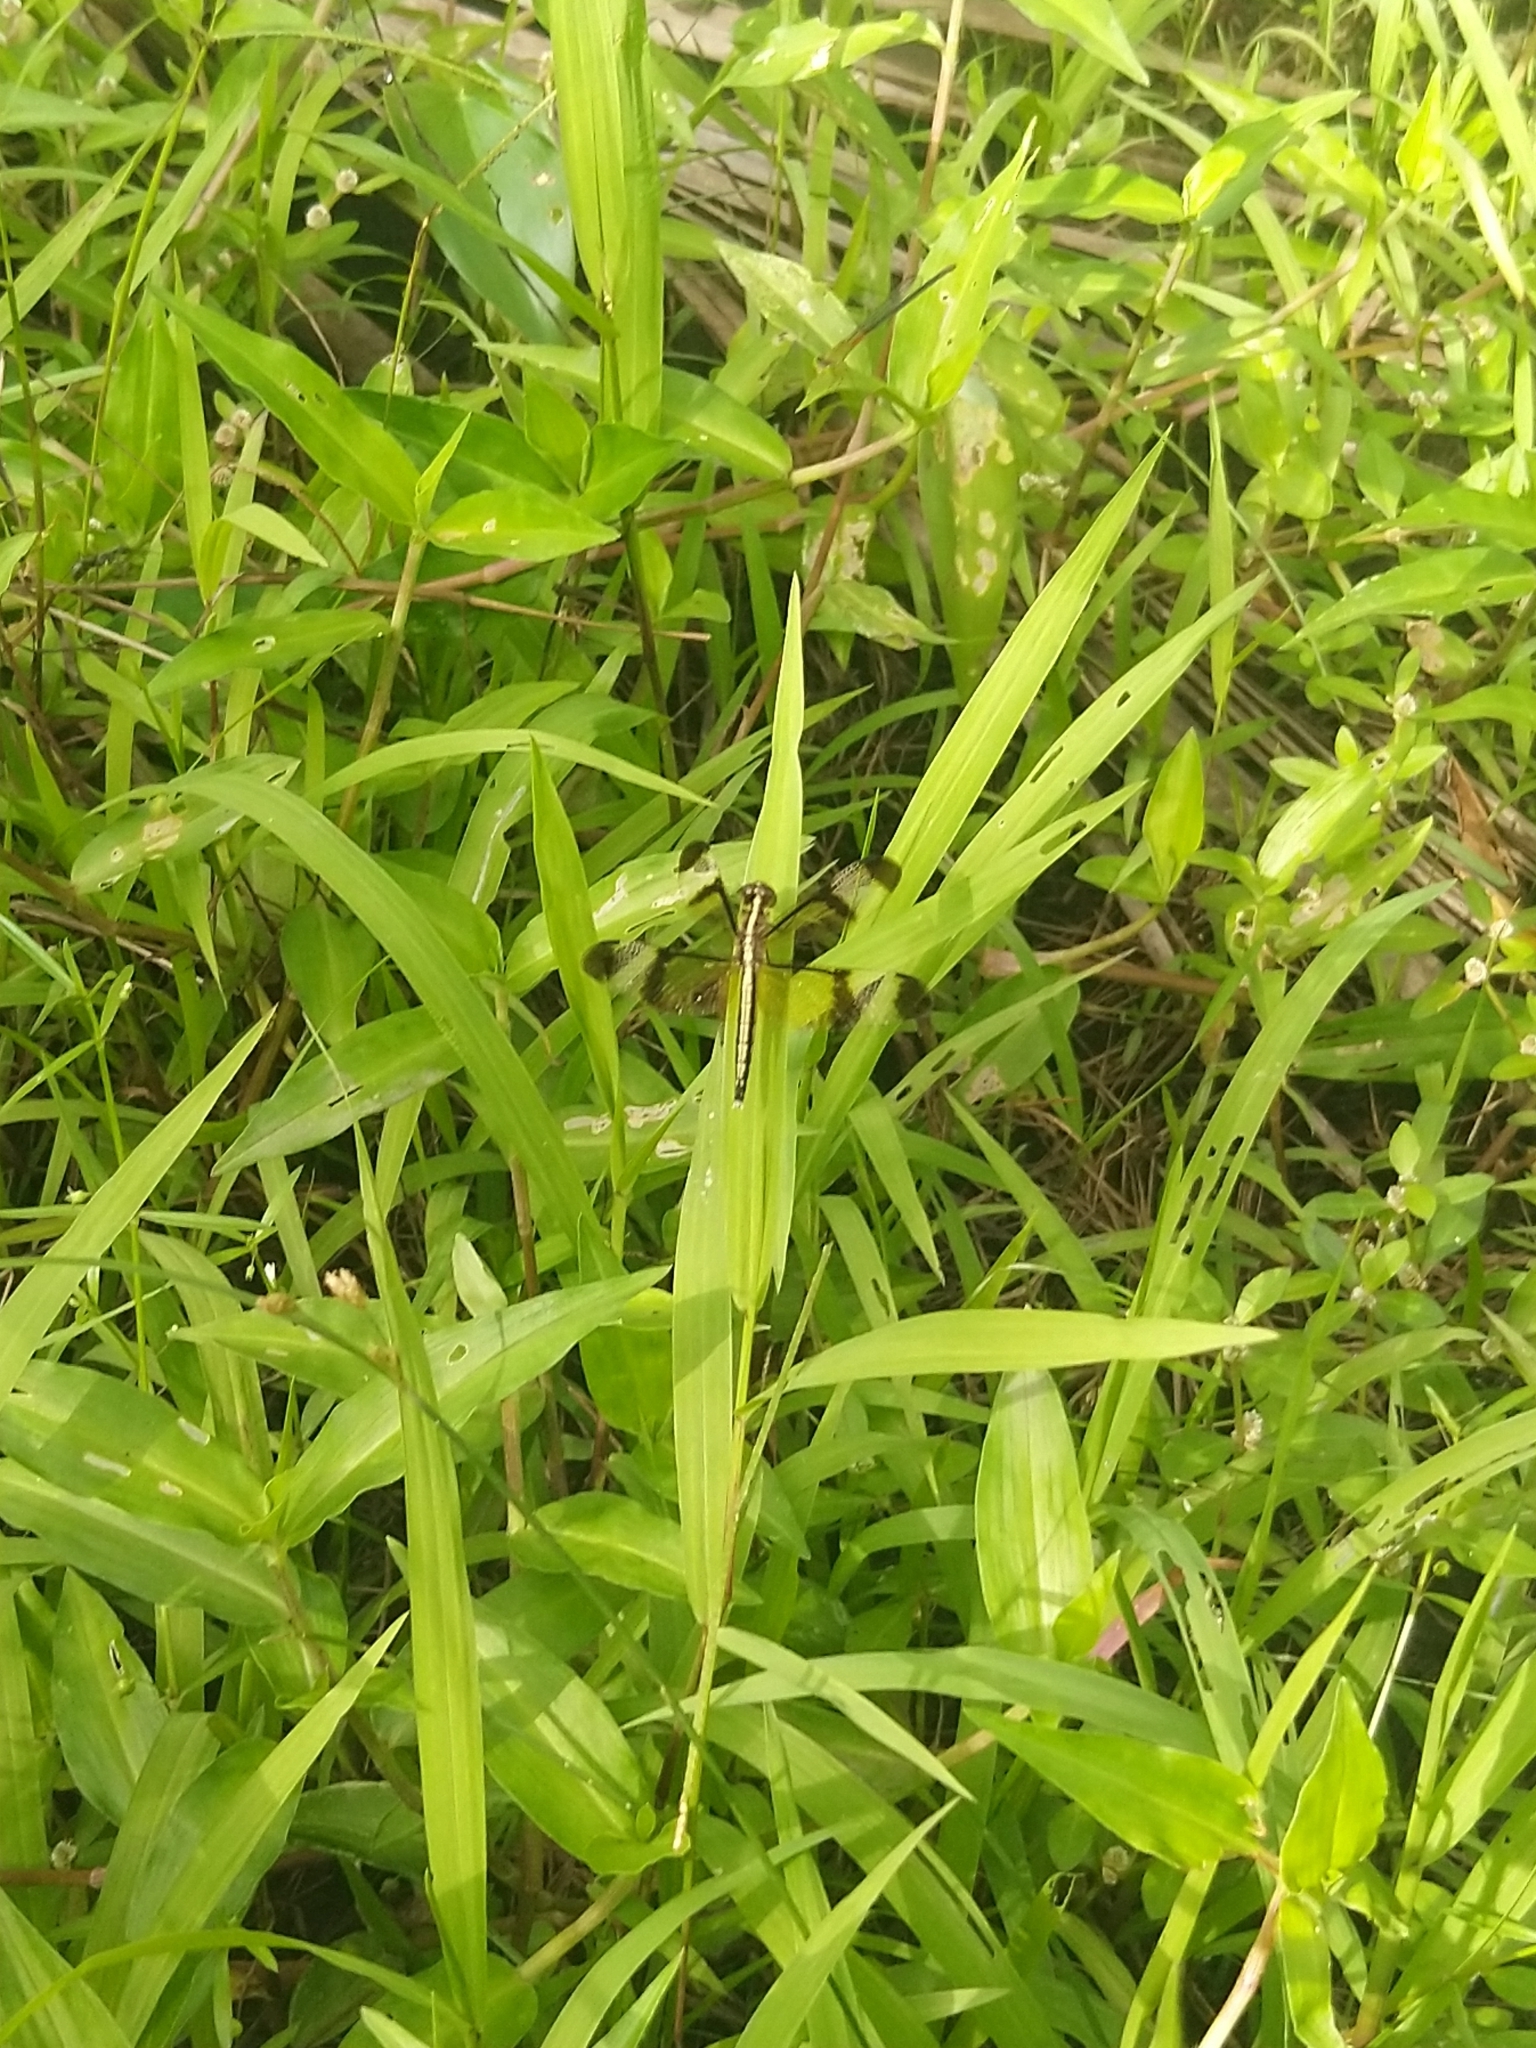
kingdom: Animalia
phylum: Arthropoda
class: Insecta
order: Odonata
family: Libellulidae
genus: Neurothemis
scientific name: Neurothemis tullia
